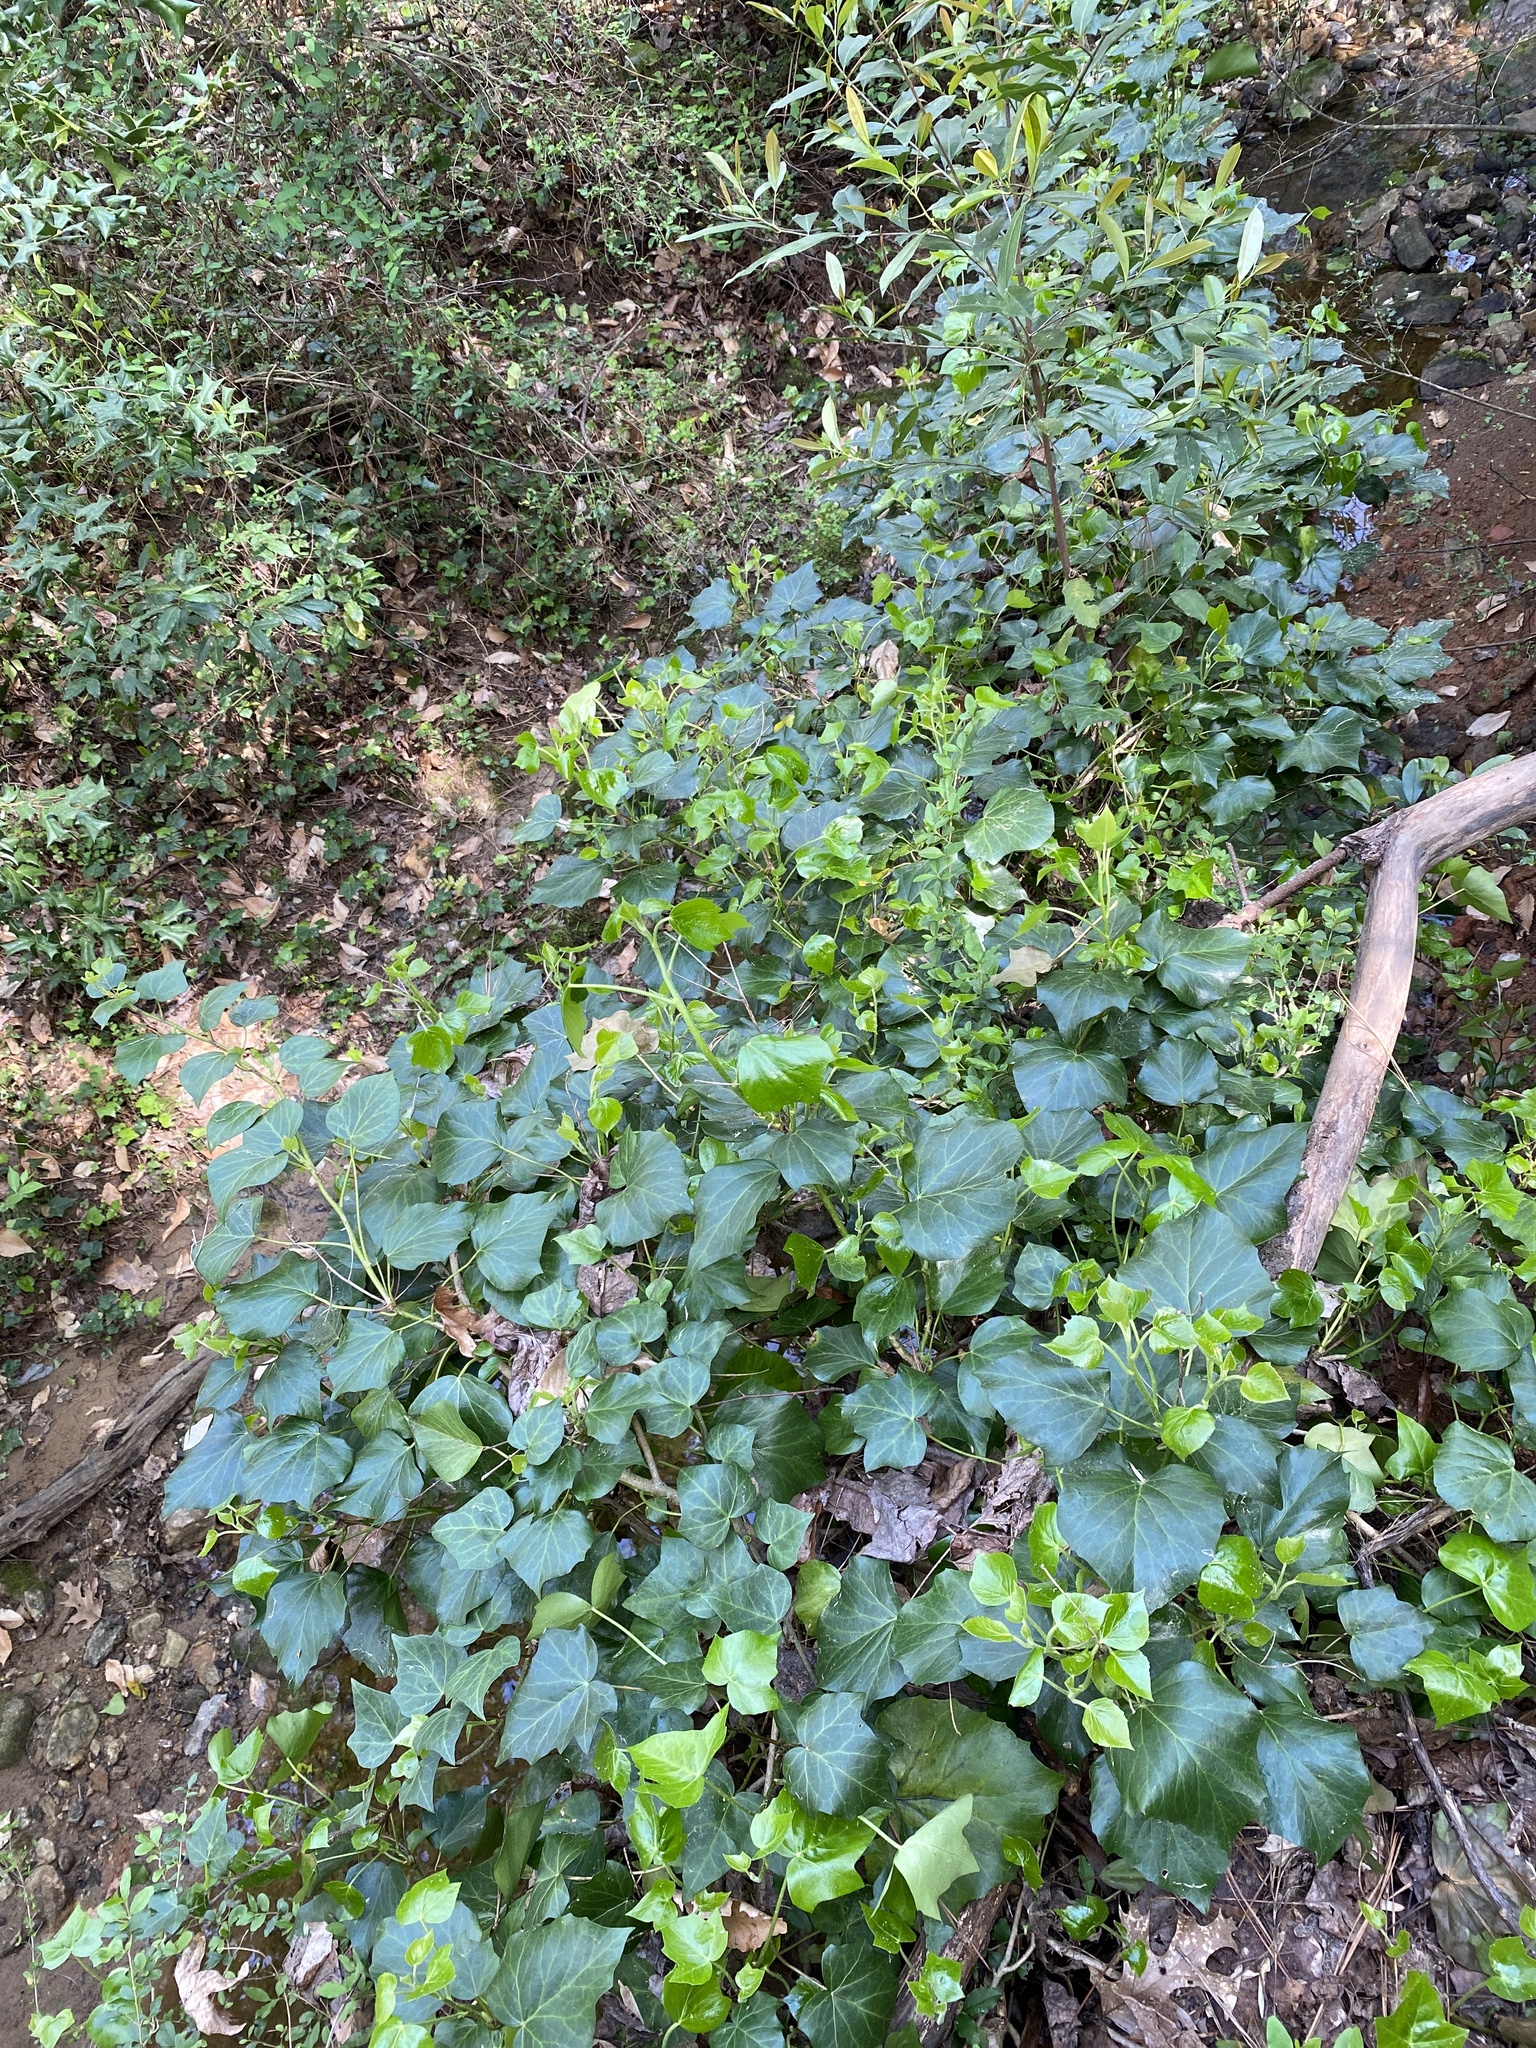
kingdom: Plantae
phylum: Tracheophyta
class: Magnoliopsida
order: Apiales
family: Araliaceae
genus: Hedera
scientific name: Hedera helix
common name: Ivy
